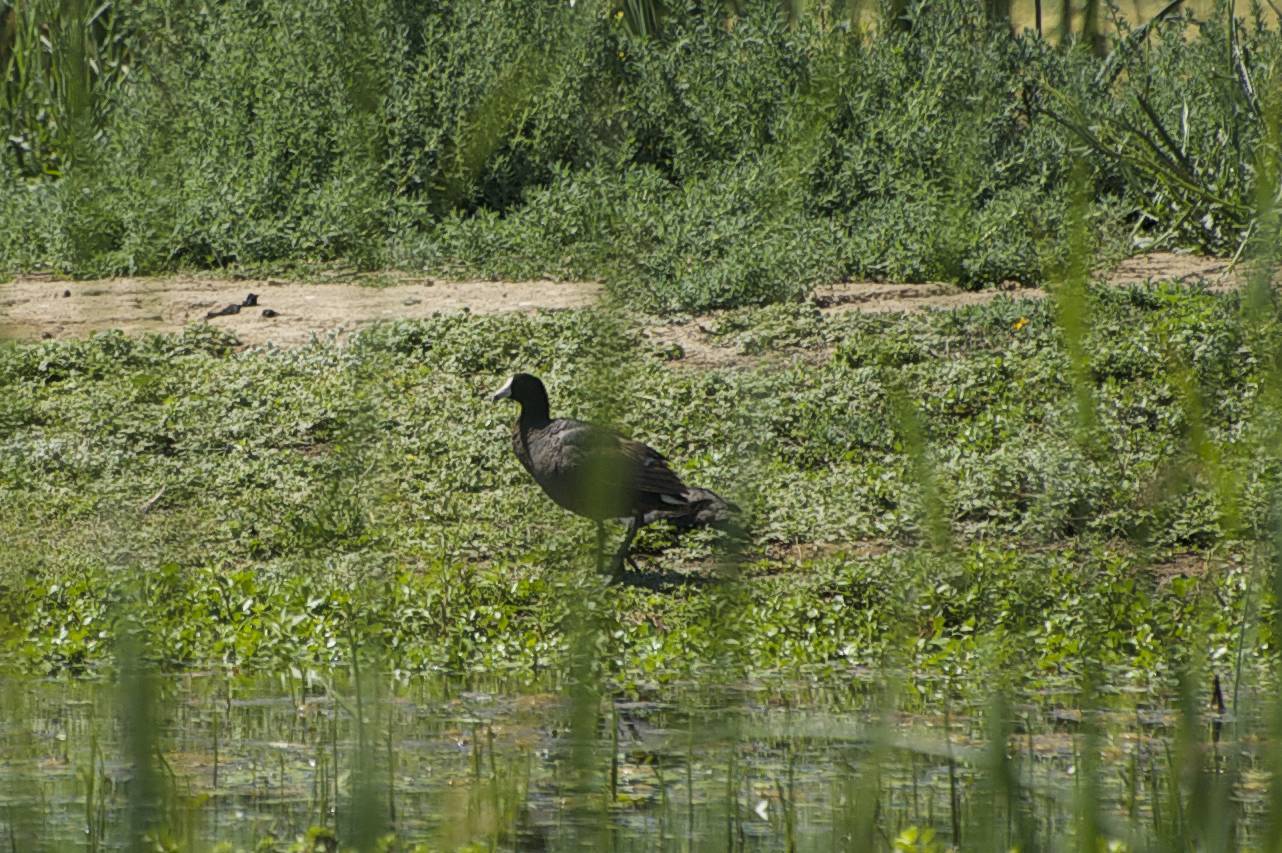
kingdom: Animalia
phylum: Chordata
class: Aves
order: Gruiformes
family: Rallidae
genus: Fulica
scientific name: Fulica americana
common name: American coot
